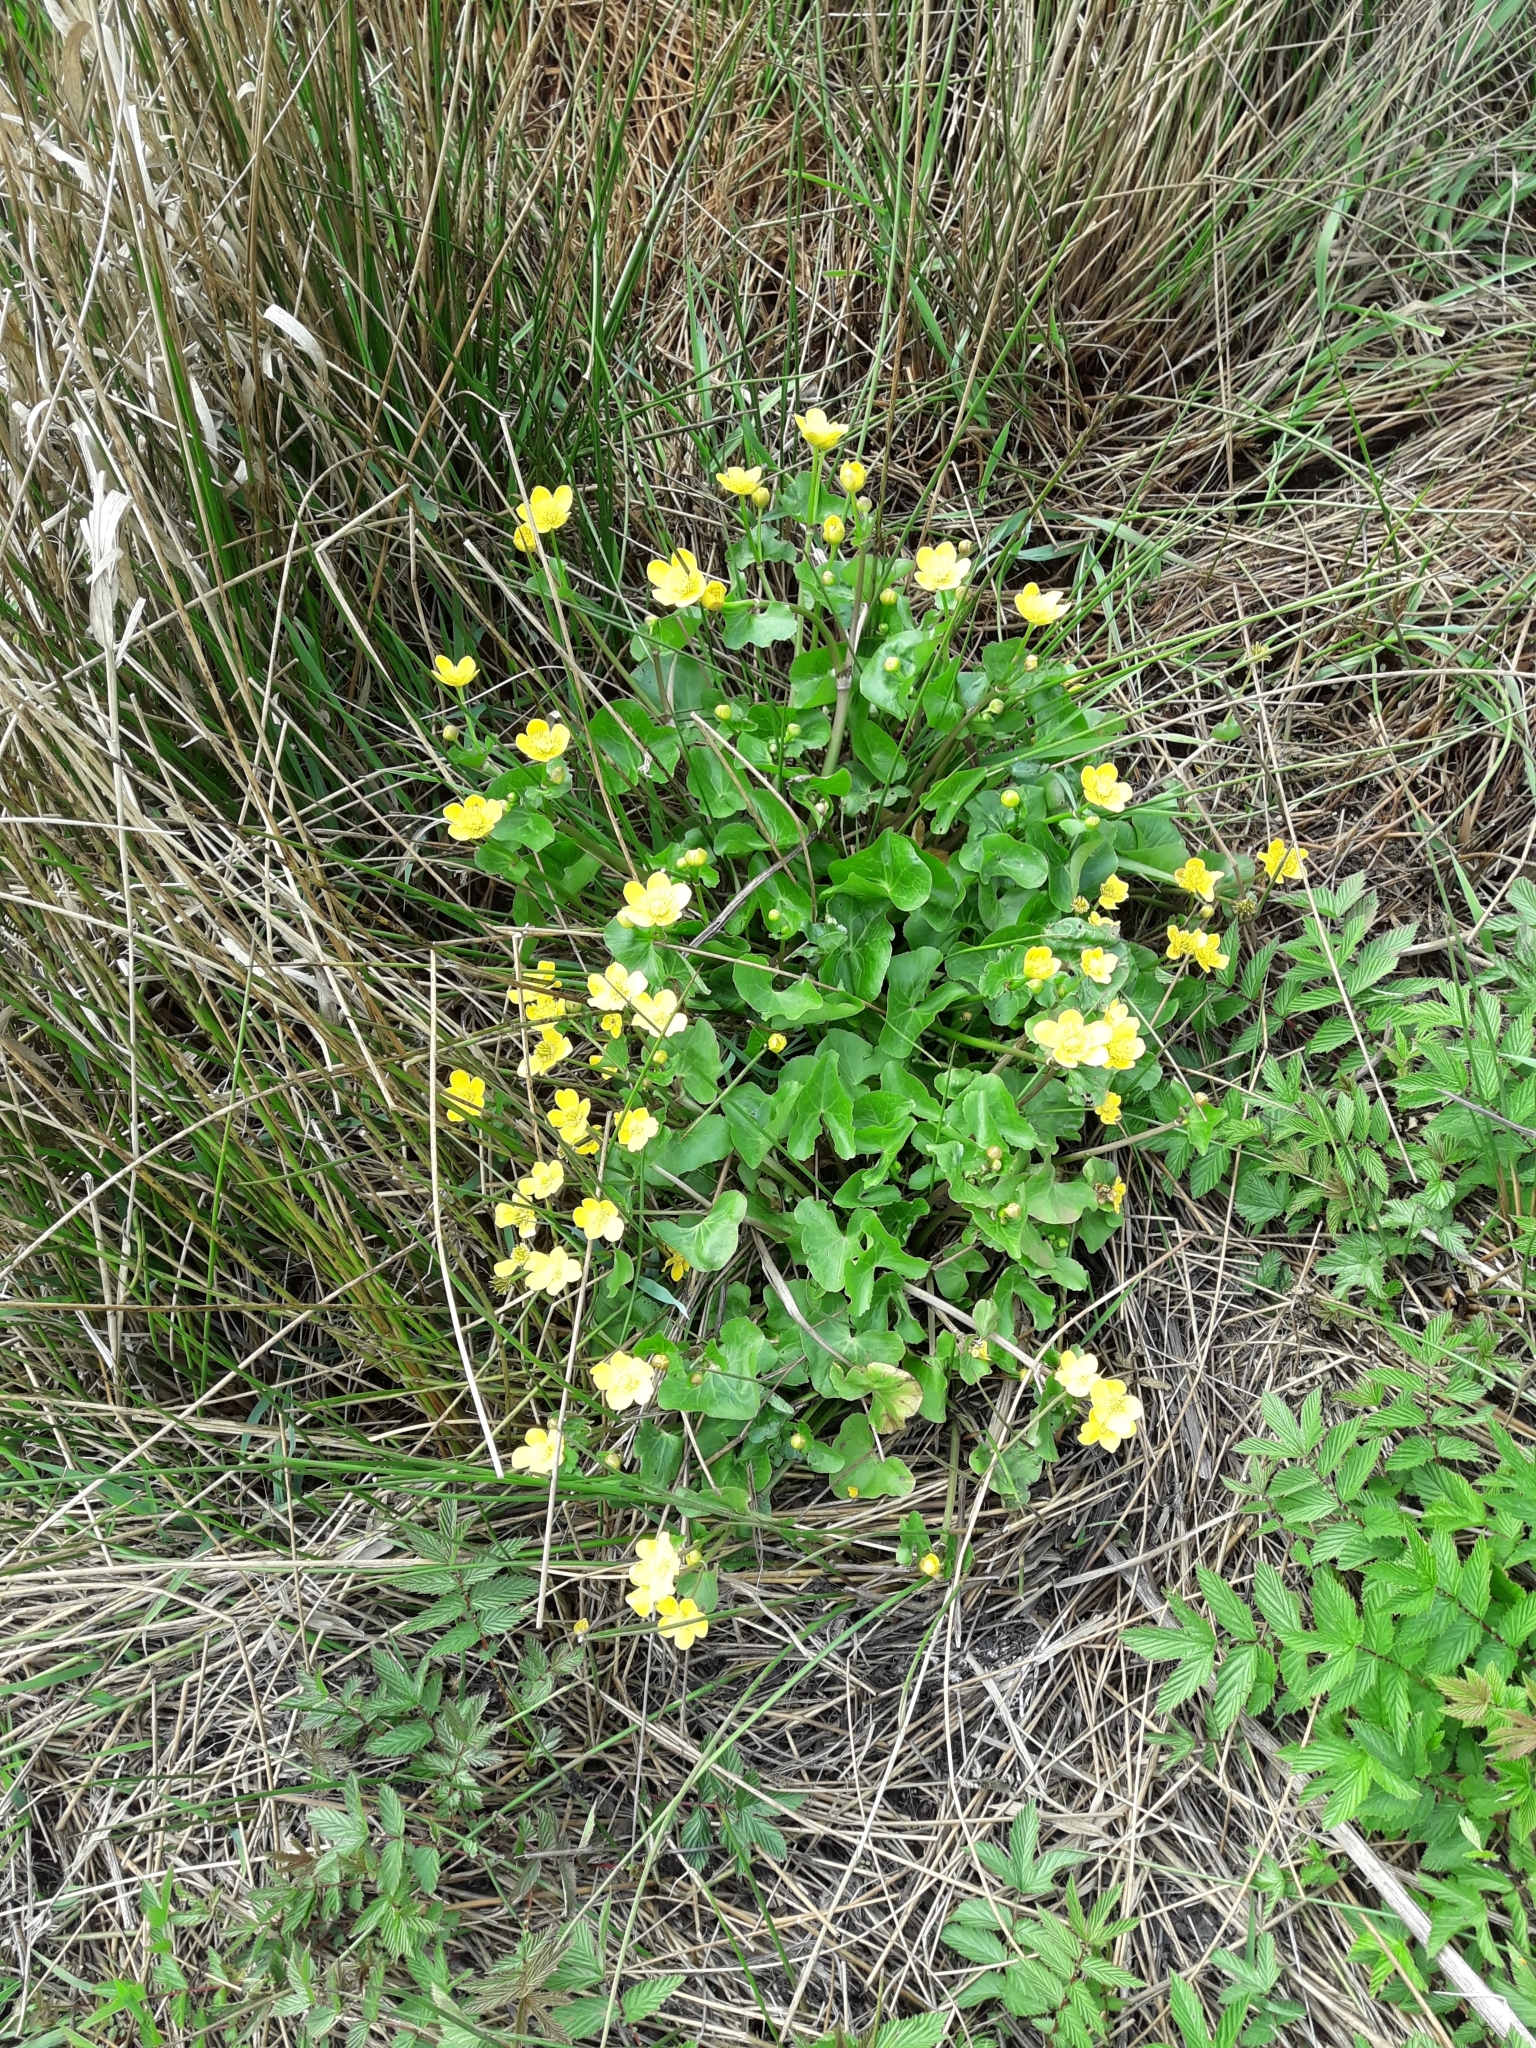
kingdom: Plantae
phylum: Tracheophyta
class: Magnoliopsida
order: Ranunculales
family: Ranunculaceae
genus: Caltha
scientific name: Caltha palustris
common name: Marsh marigold
